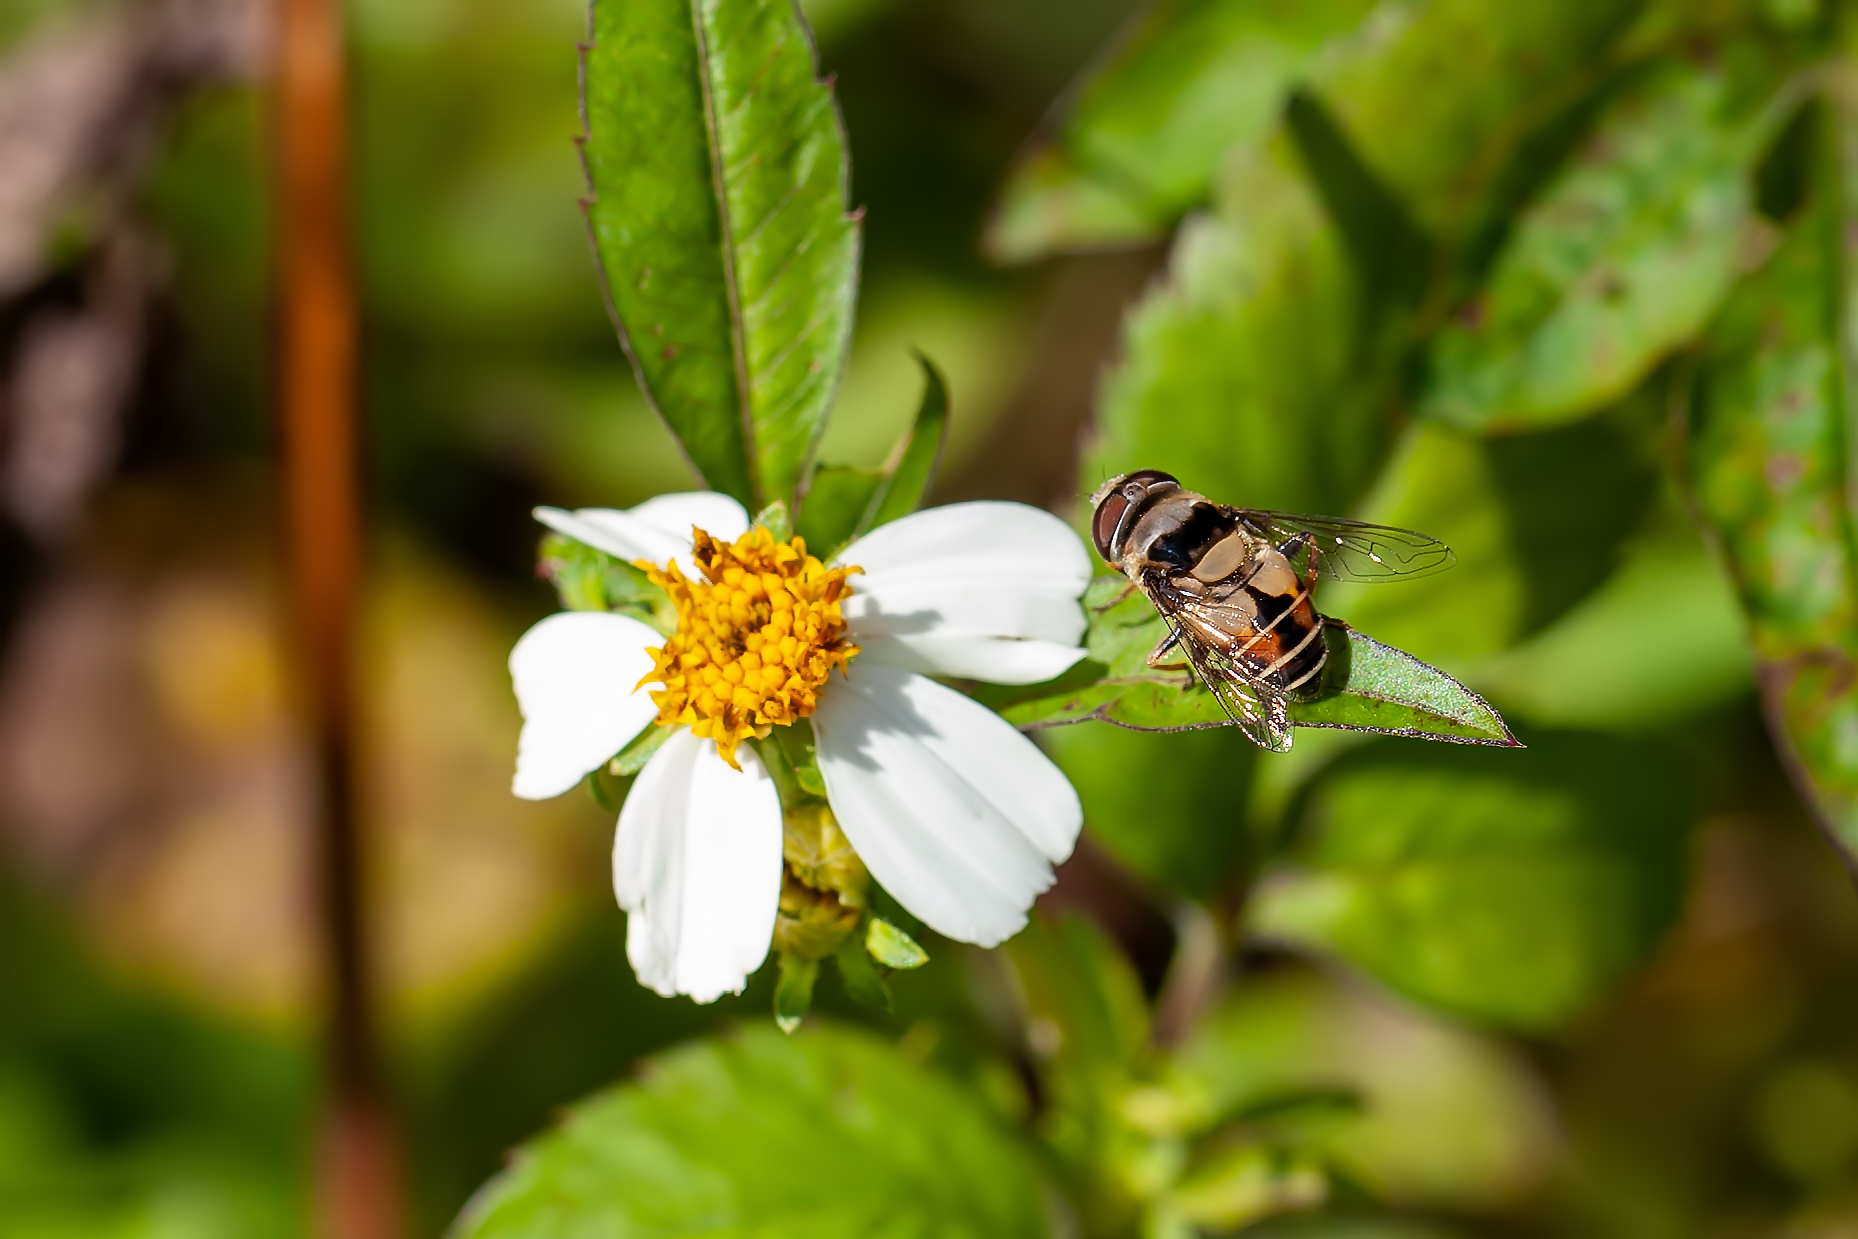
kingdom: Animalia
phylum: Arthropoda
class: Insecta
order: Diptera
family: Syrphidae
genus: Palpada
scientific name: Palpada pusilla
